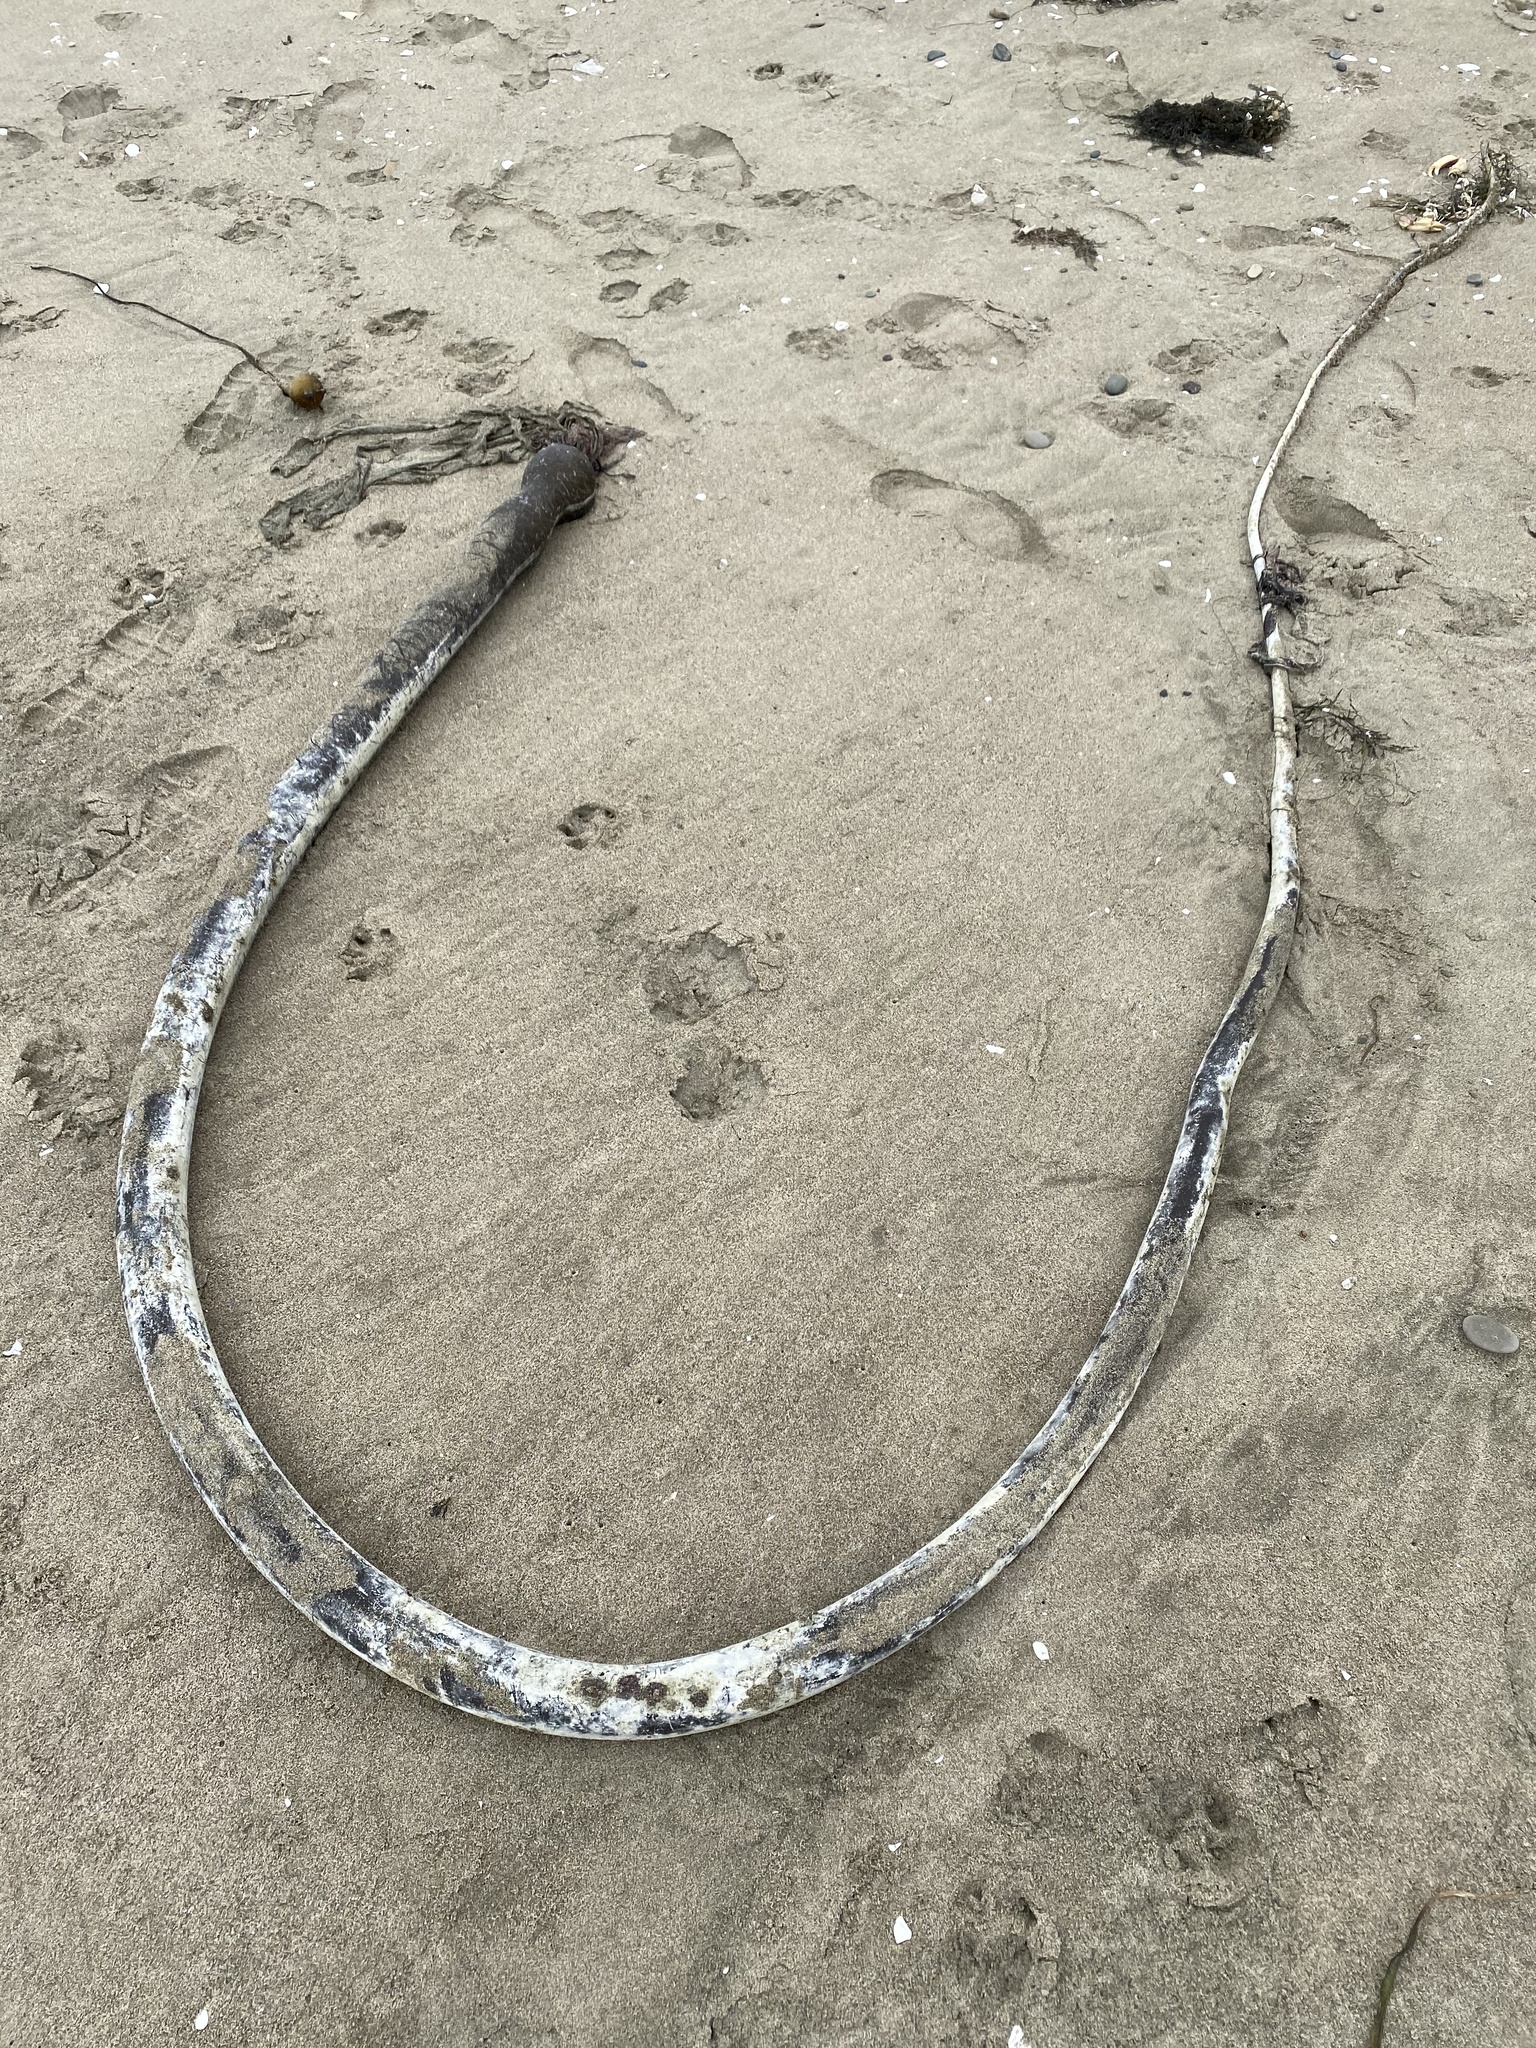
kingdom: Chromista
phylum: Ochrophyta
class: Phaeophyceae
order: Laminariales
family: Laminariaceae
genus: Nereocystis
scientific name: Nereocystis luetkeana
